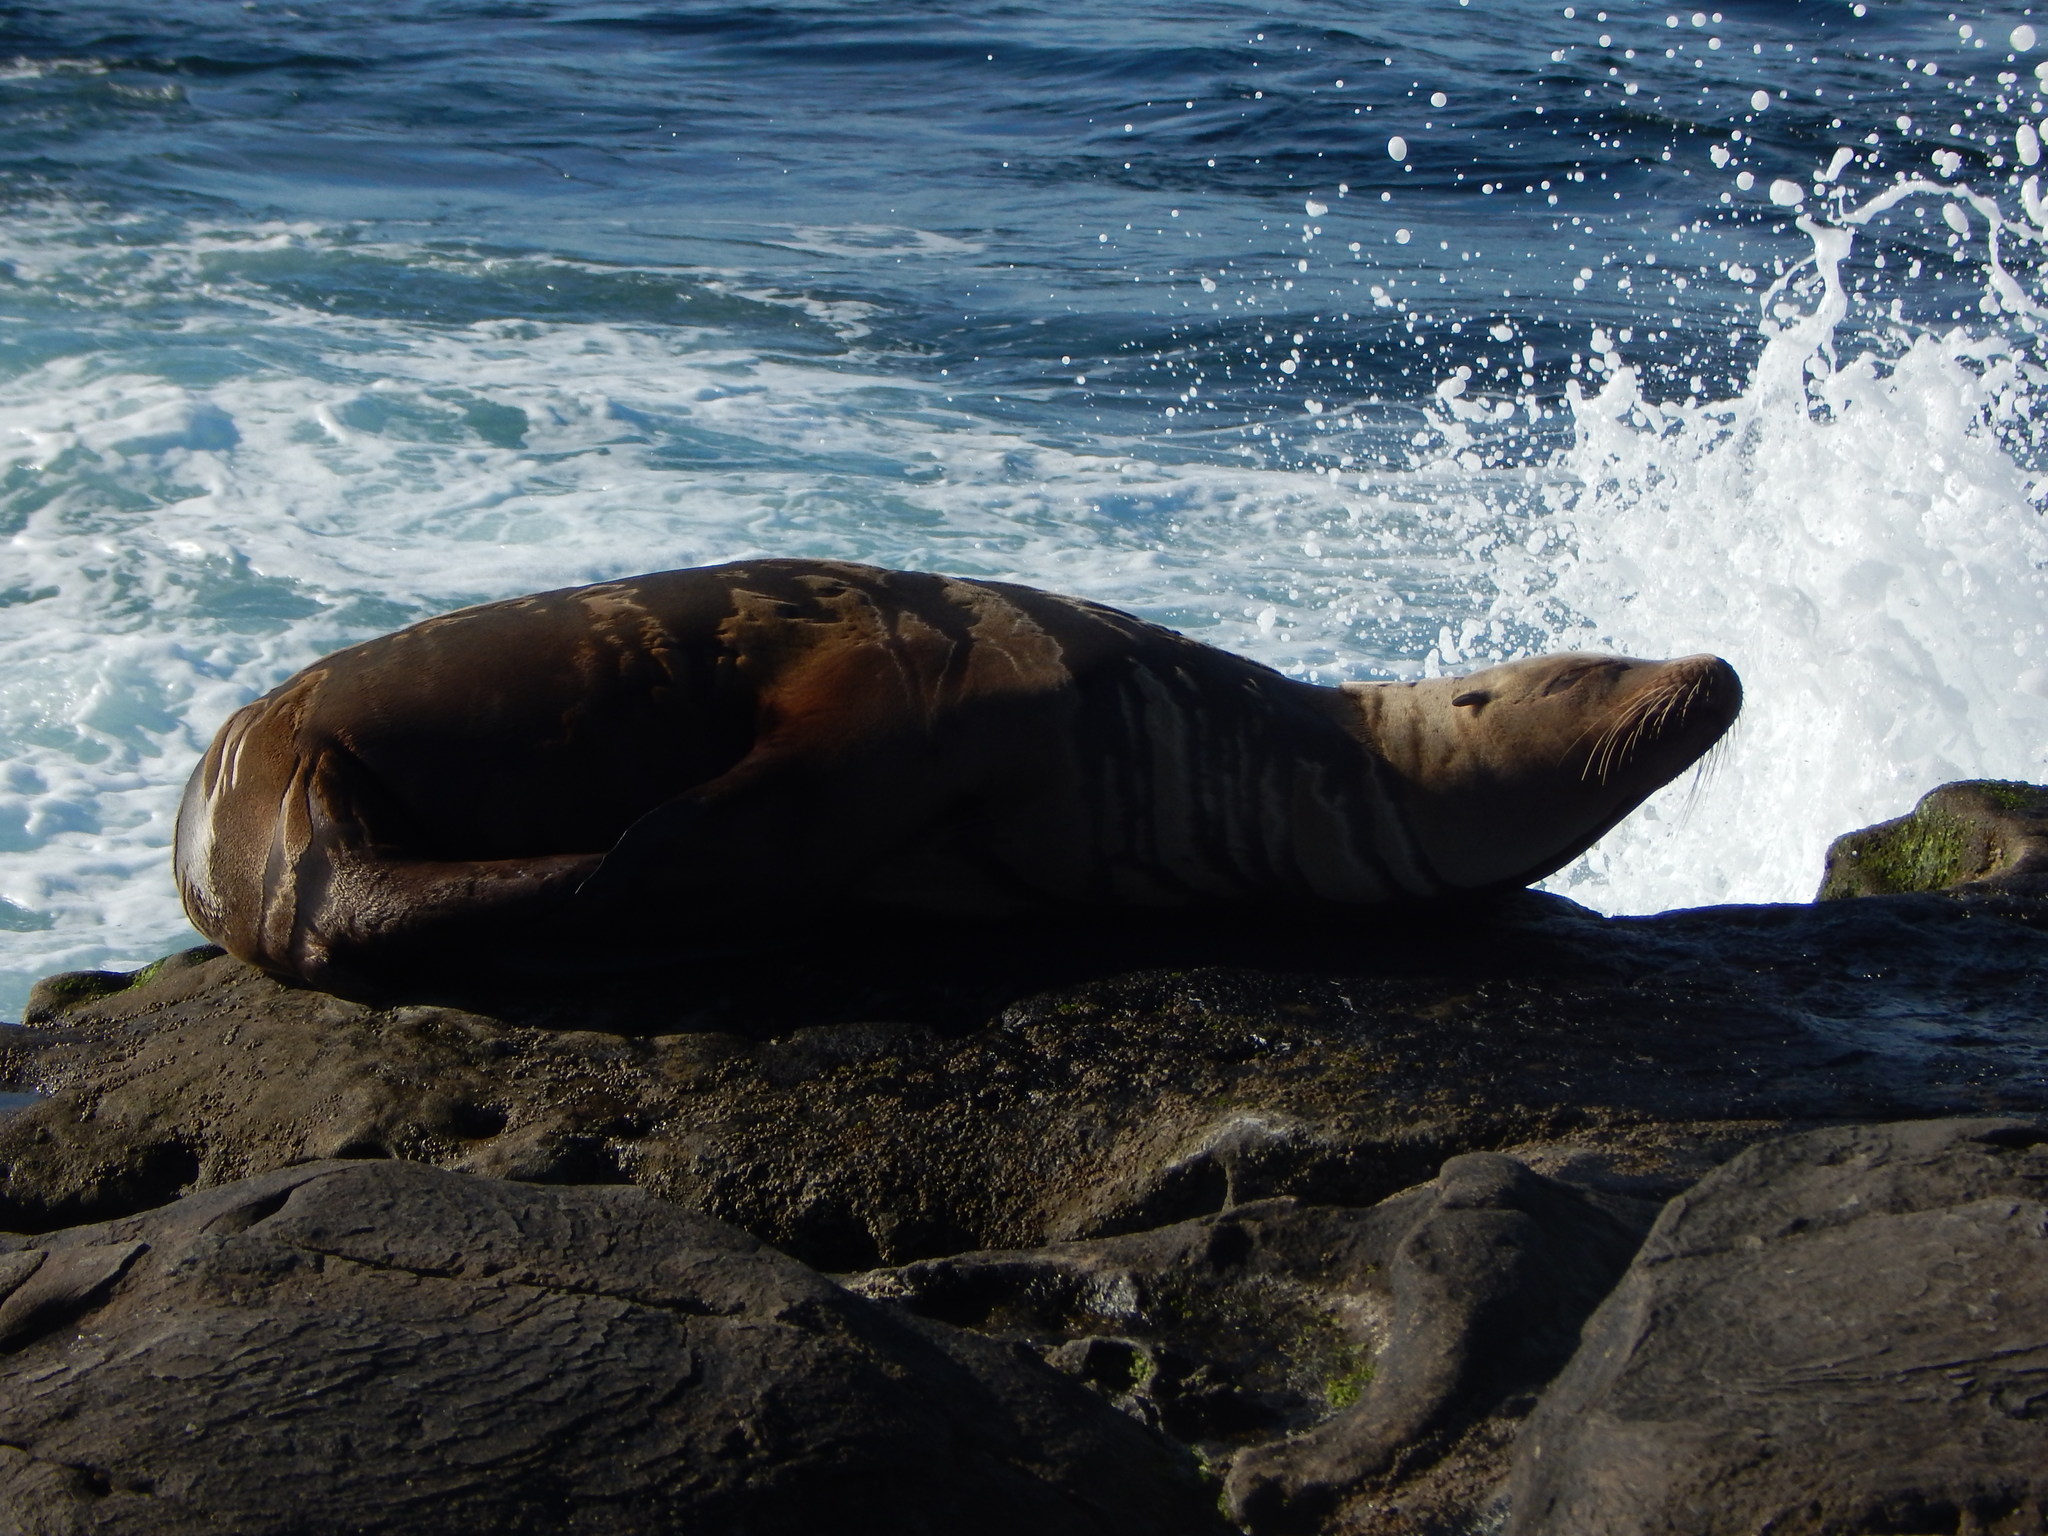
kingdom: Animalia
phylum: Chordata
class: Mammalia
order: Carnivora
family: Otariidae
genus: Zalophus
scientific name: Zalophus californianus
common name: California sea lion
